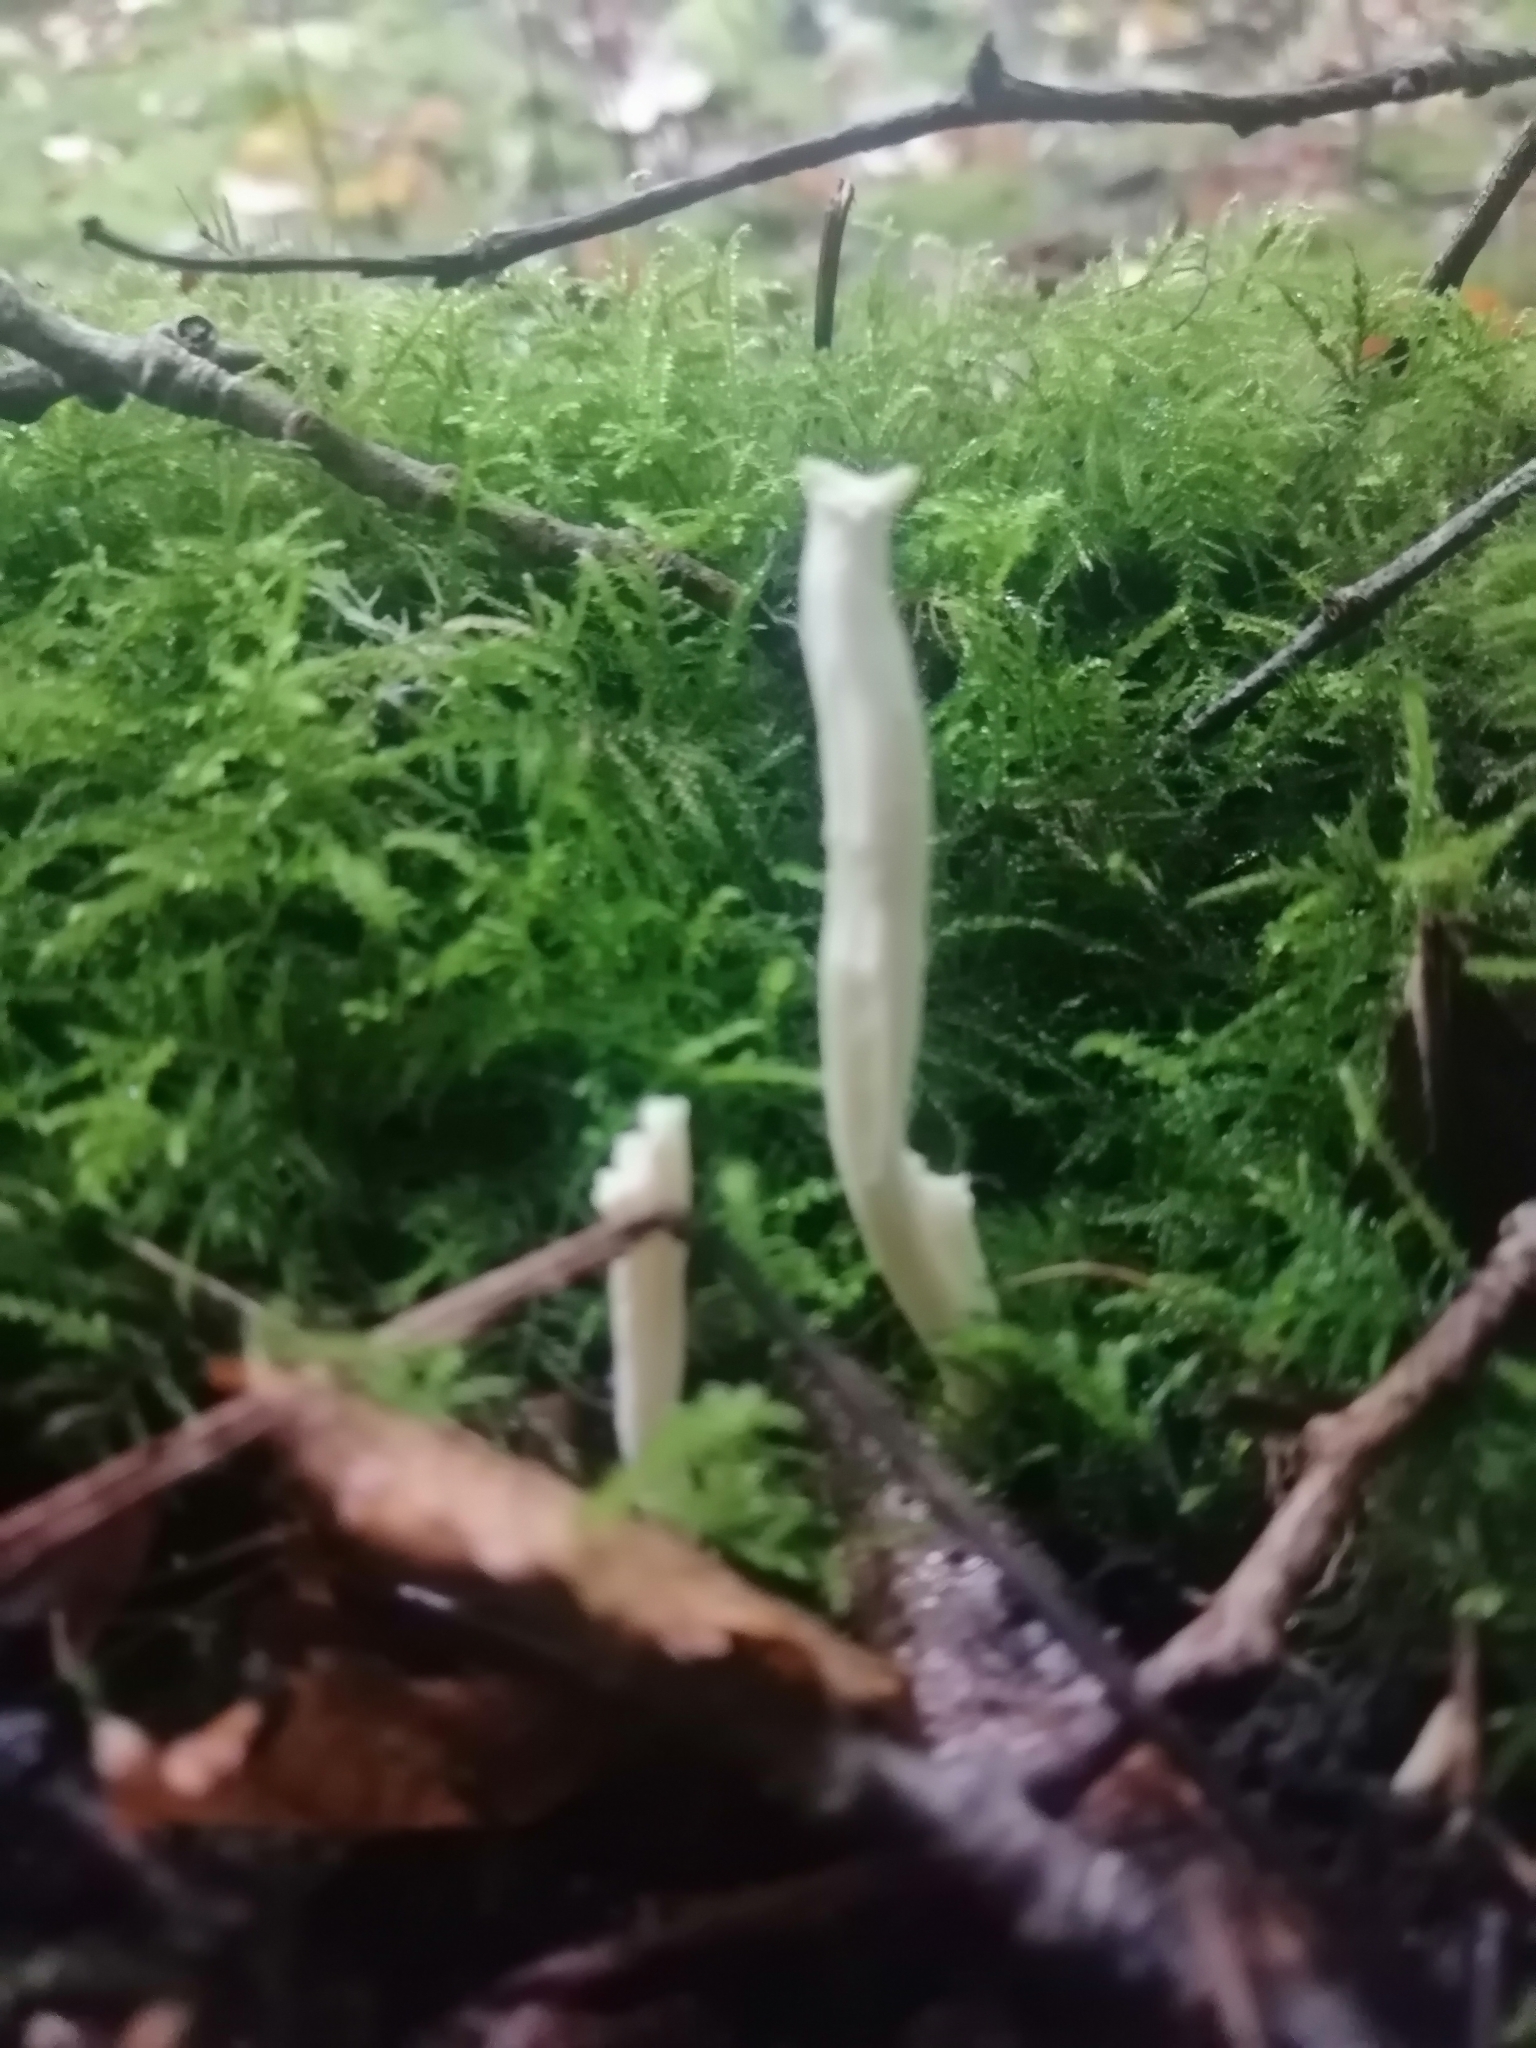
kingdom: Fungi
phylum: Basidiomycota
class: Agaricomycetes
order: Cantharellales
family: Hydnaceae
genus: Clavulina
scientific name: Clavulina coralloides
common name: Crested coral
